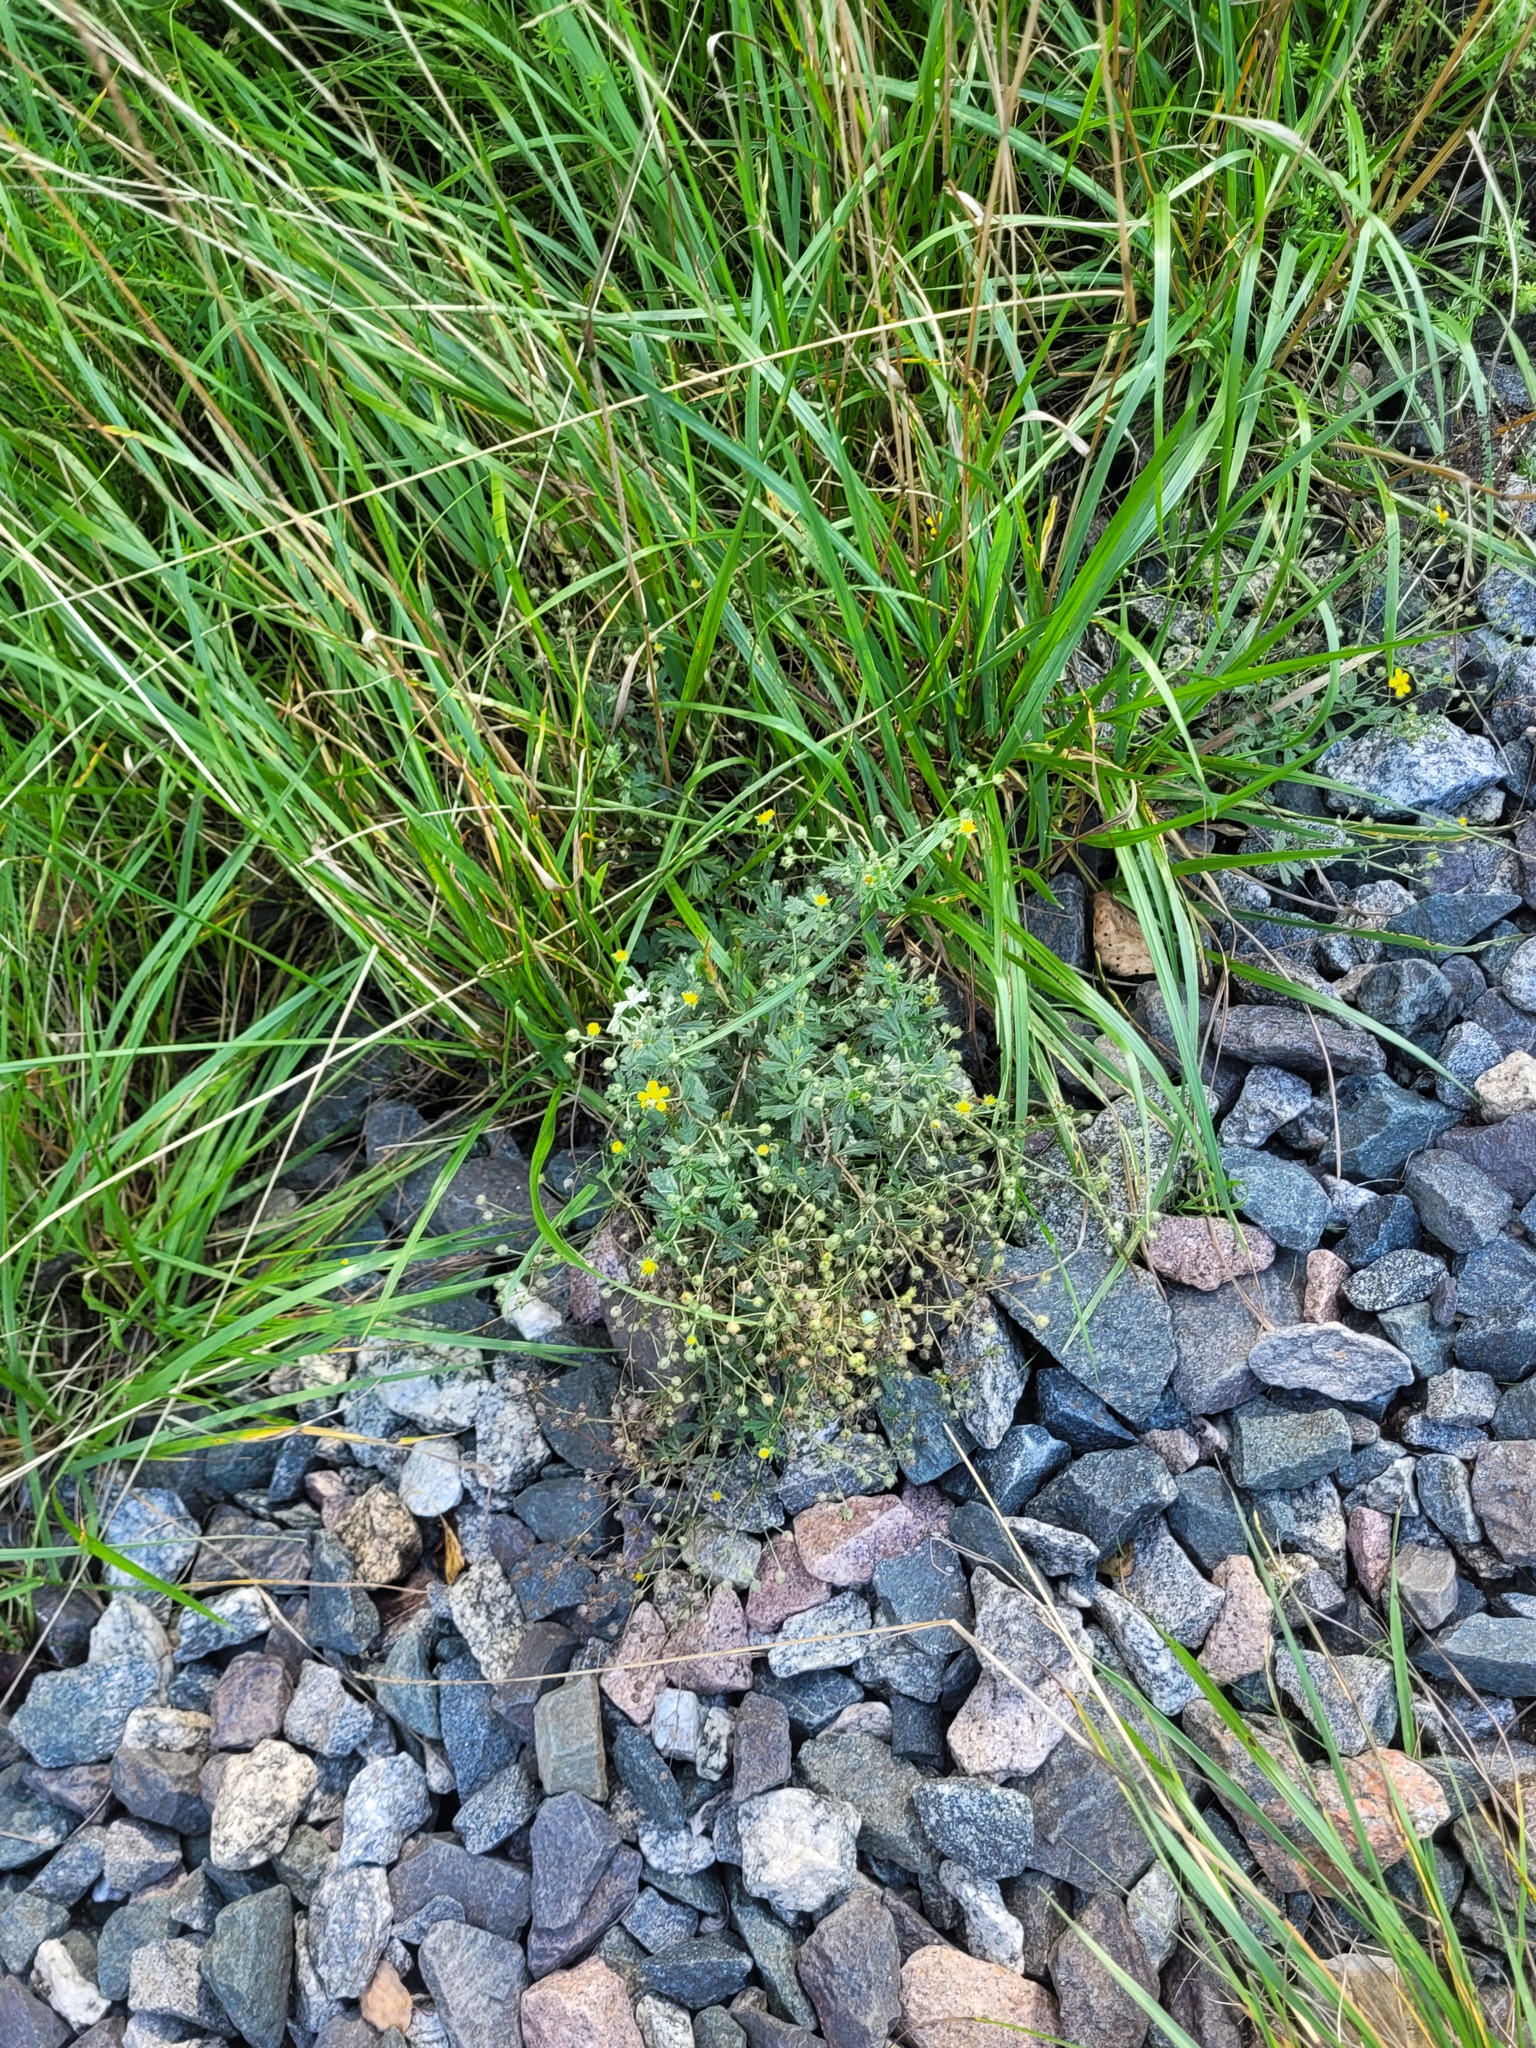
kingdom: Plantae
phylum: Tracheophyta
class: Magnoliopsida
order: Rosales
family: Rosaceae
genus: Potentilla
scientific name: Potentilla argentea
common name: Hoary cinquefoil
